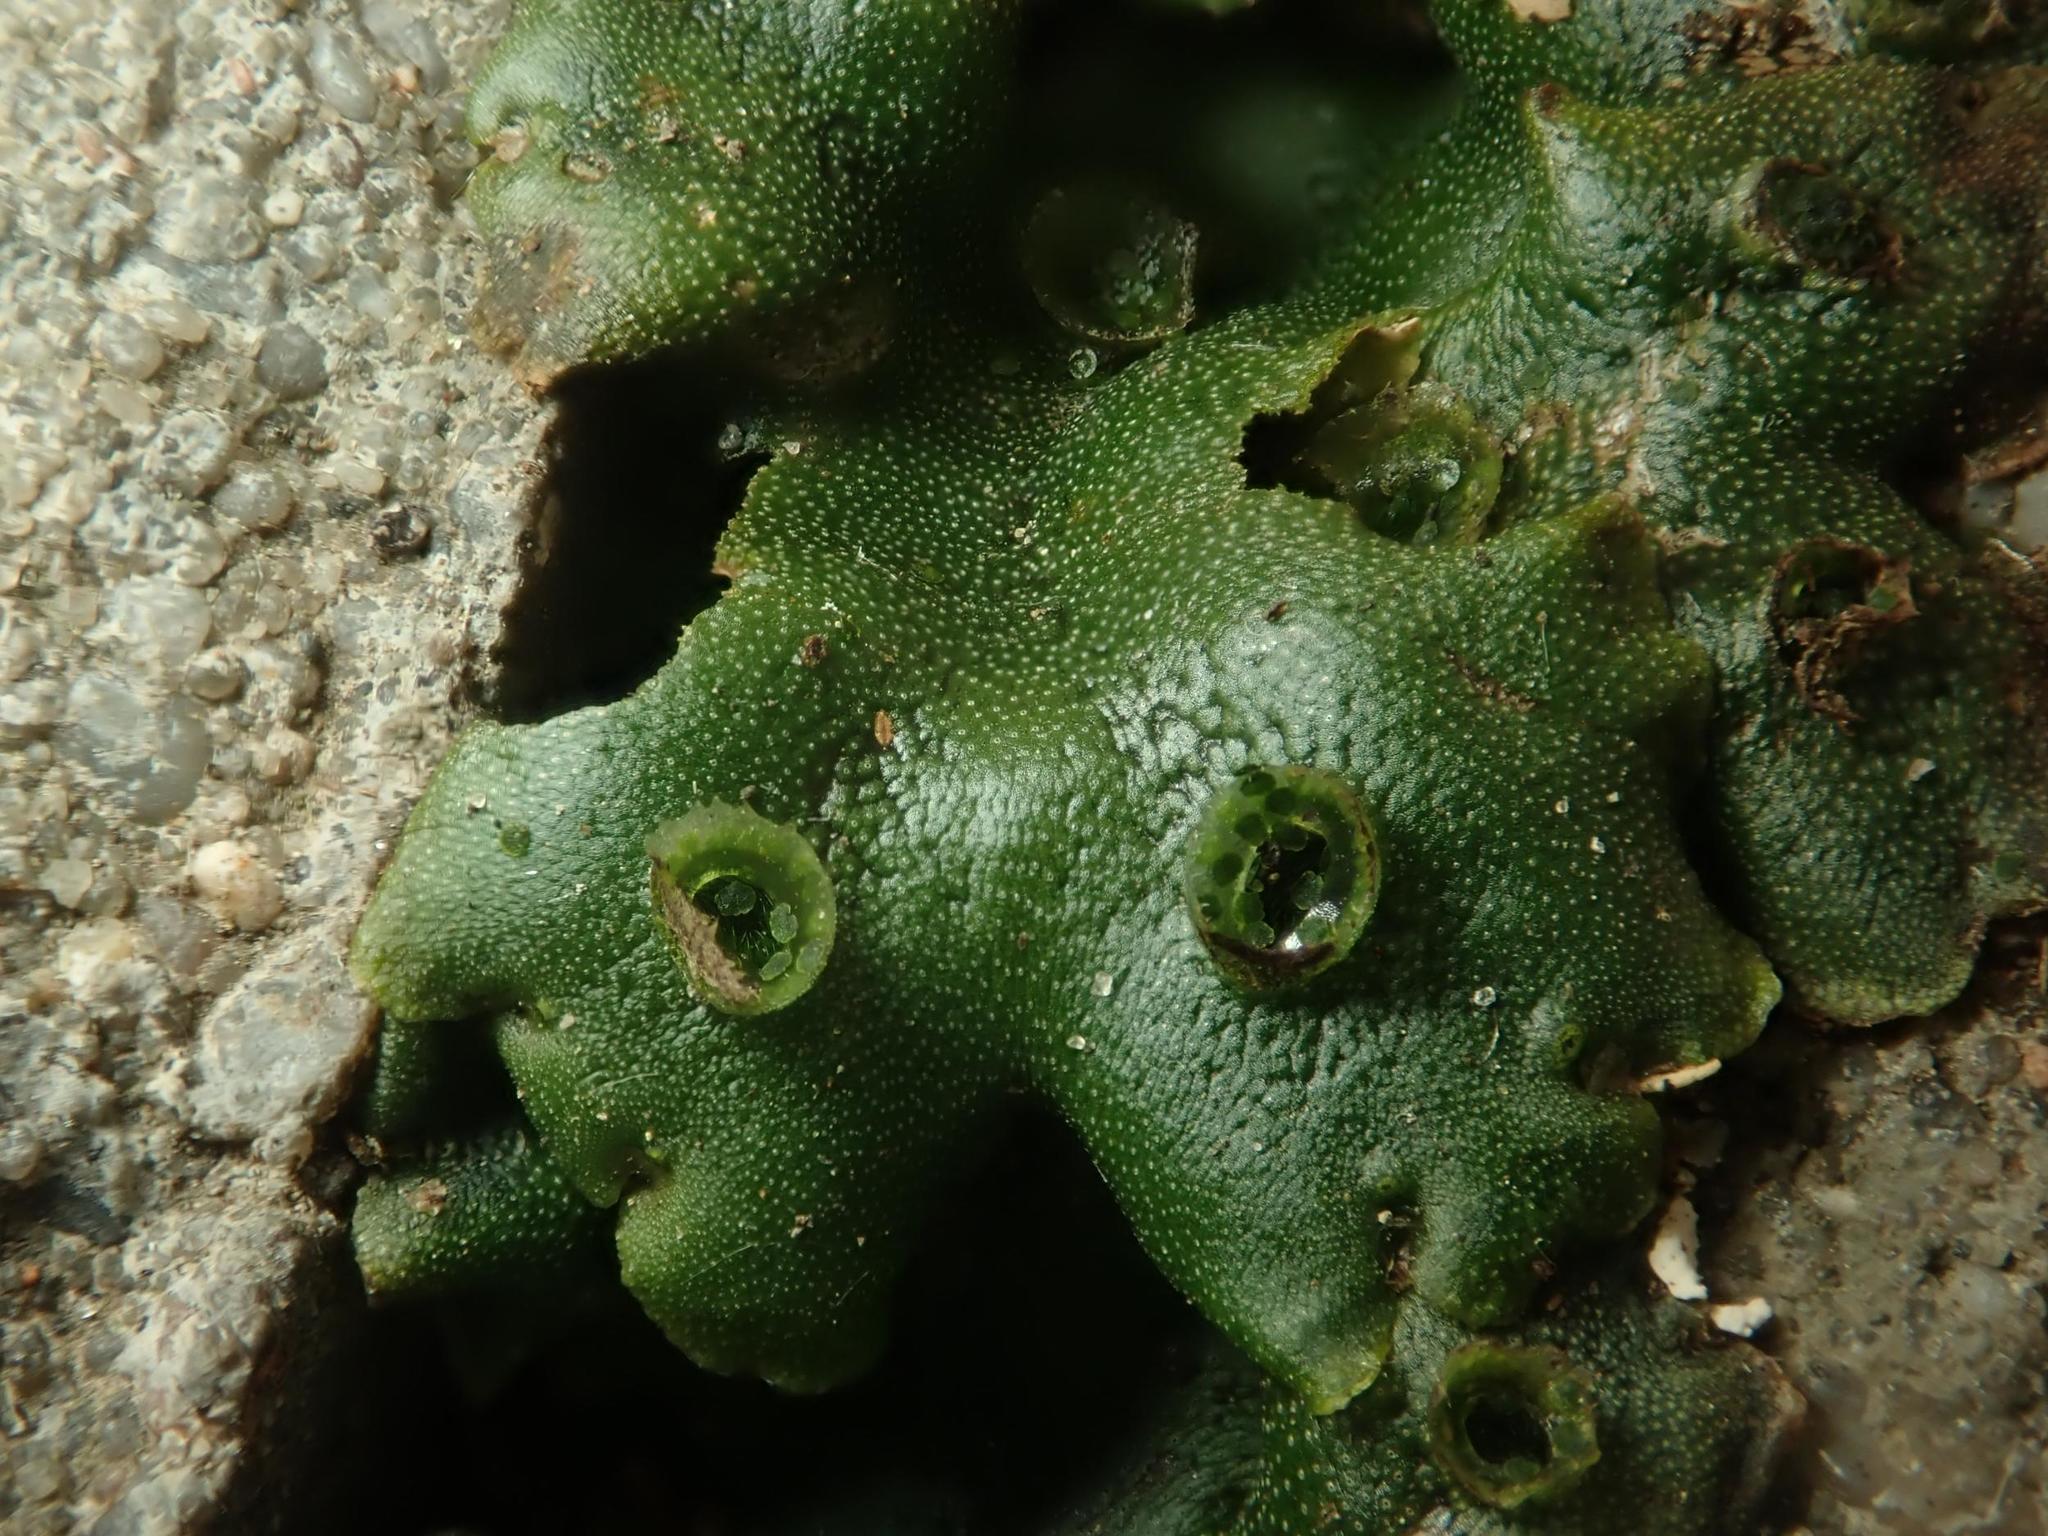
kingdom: Plantae
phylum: Marchantiophyta
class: Marchantiopsida
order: Marchantiales
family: Marchantiaceae
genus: Marchantia
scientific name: Marchantia polymorpha
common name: Common liverwort
